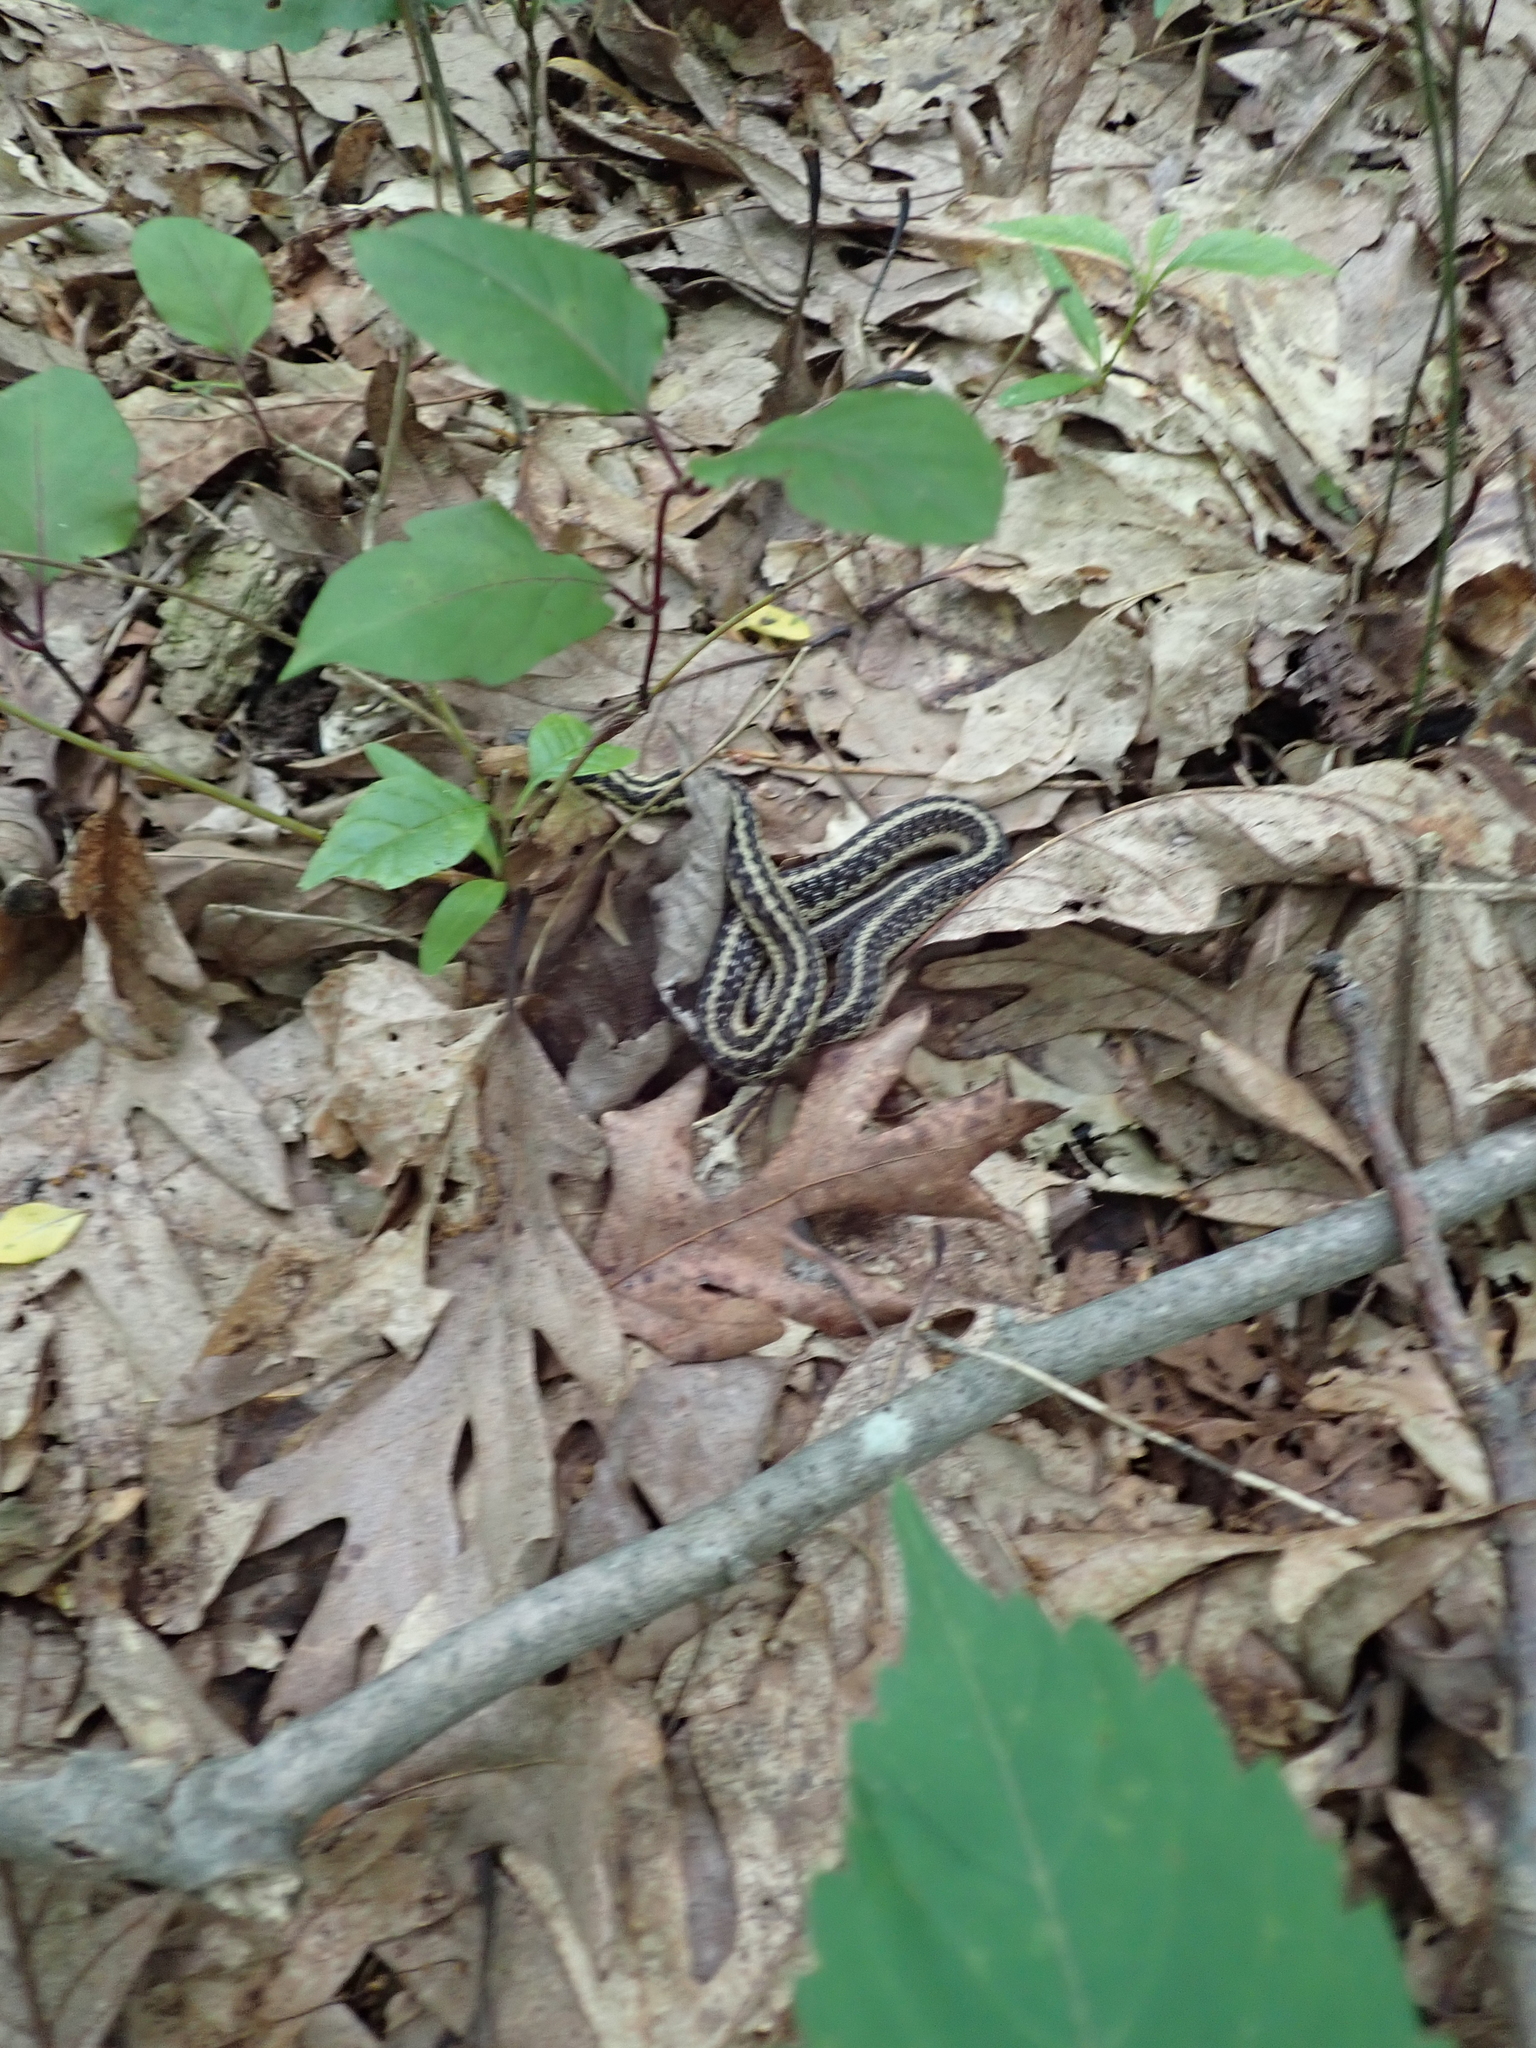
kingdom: Animalia
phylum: Chordata
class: Squamata
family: Colubridae
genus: Thamnophis
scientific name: Thamnophis sirtalis
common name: Common garter snake
